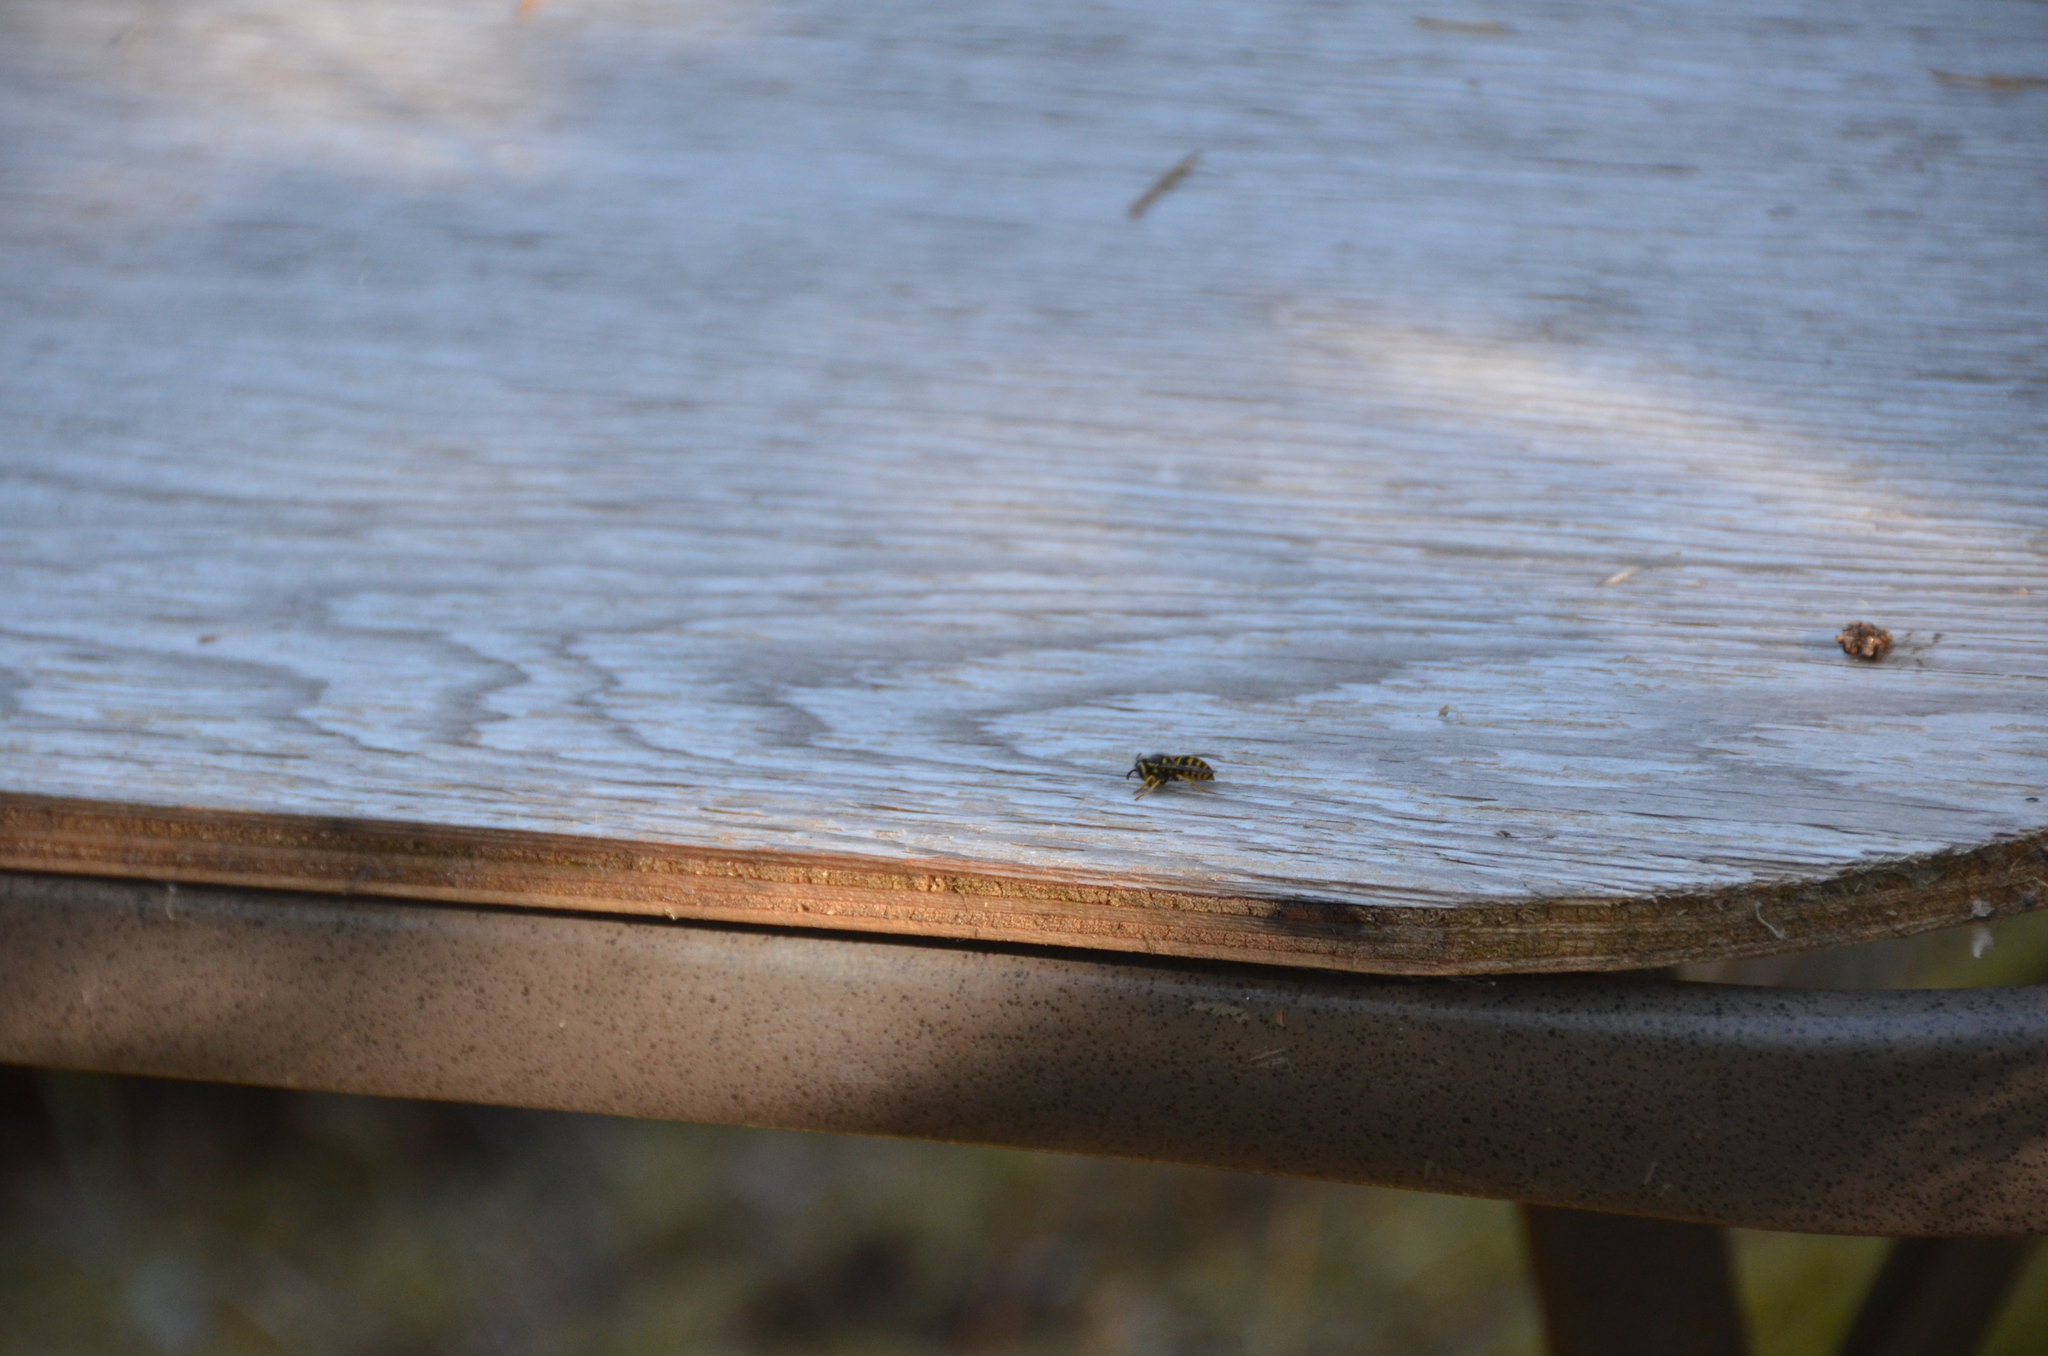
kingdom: Animalia
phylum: Arthropoda
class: Insecta
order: Hymenoptera
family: Vespidae
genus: Vespula
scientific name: Vespula pensylvanica
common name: Western yellowjacket
